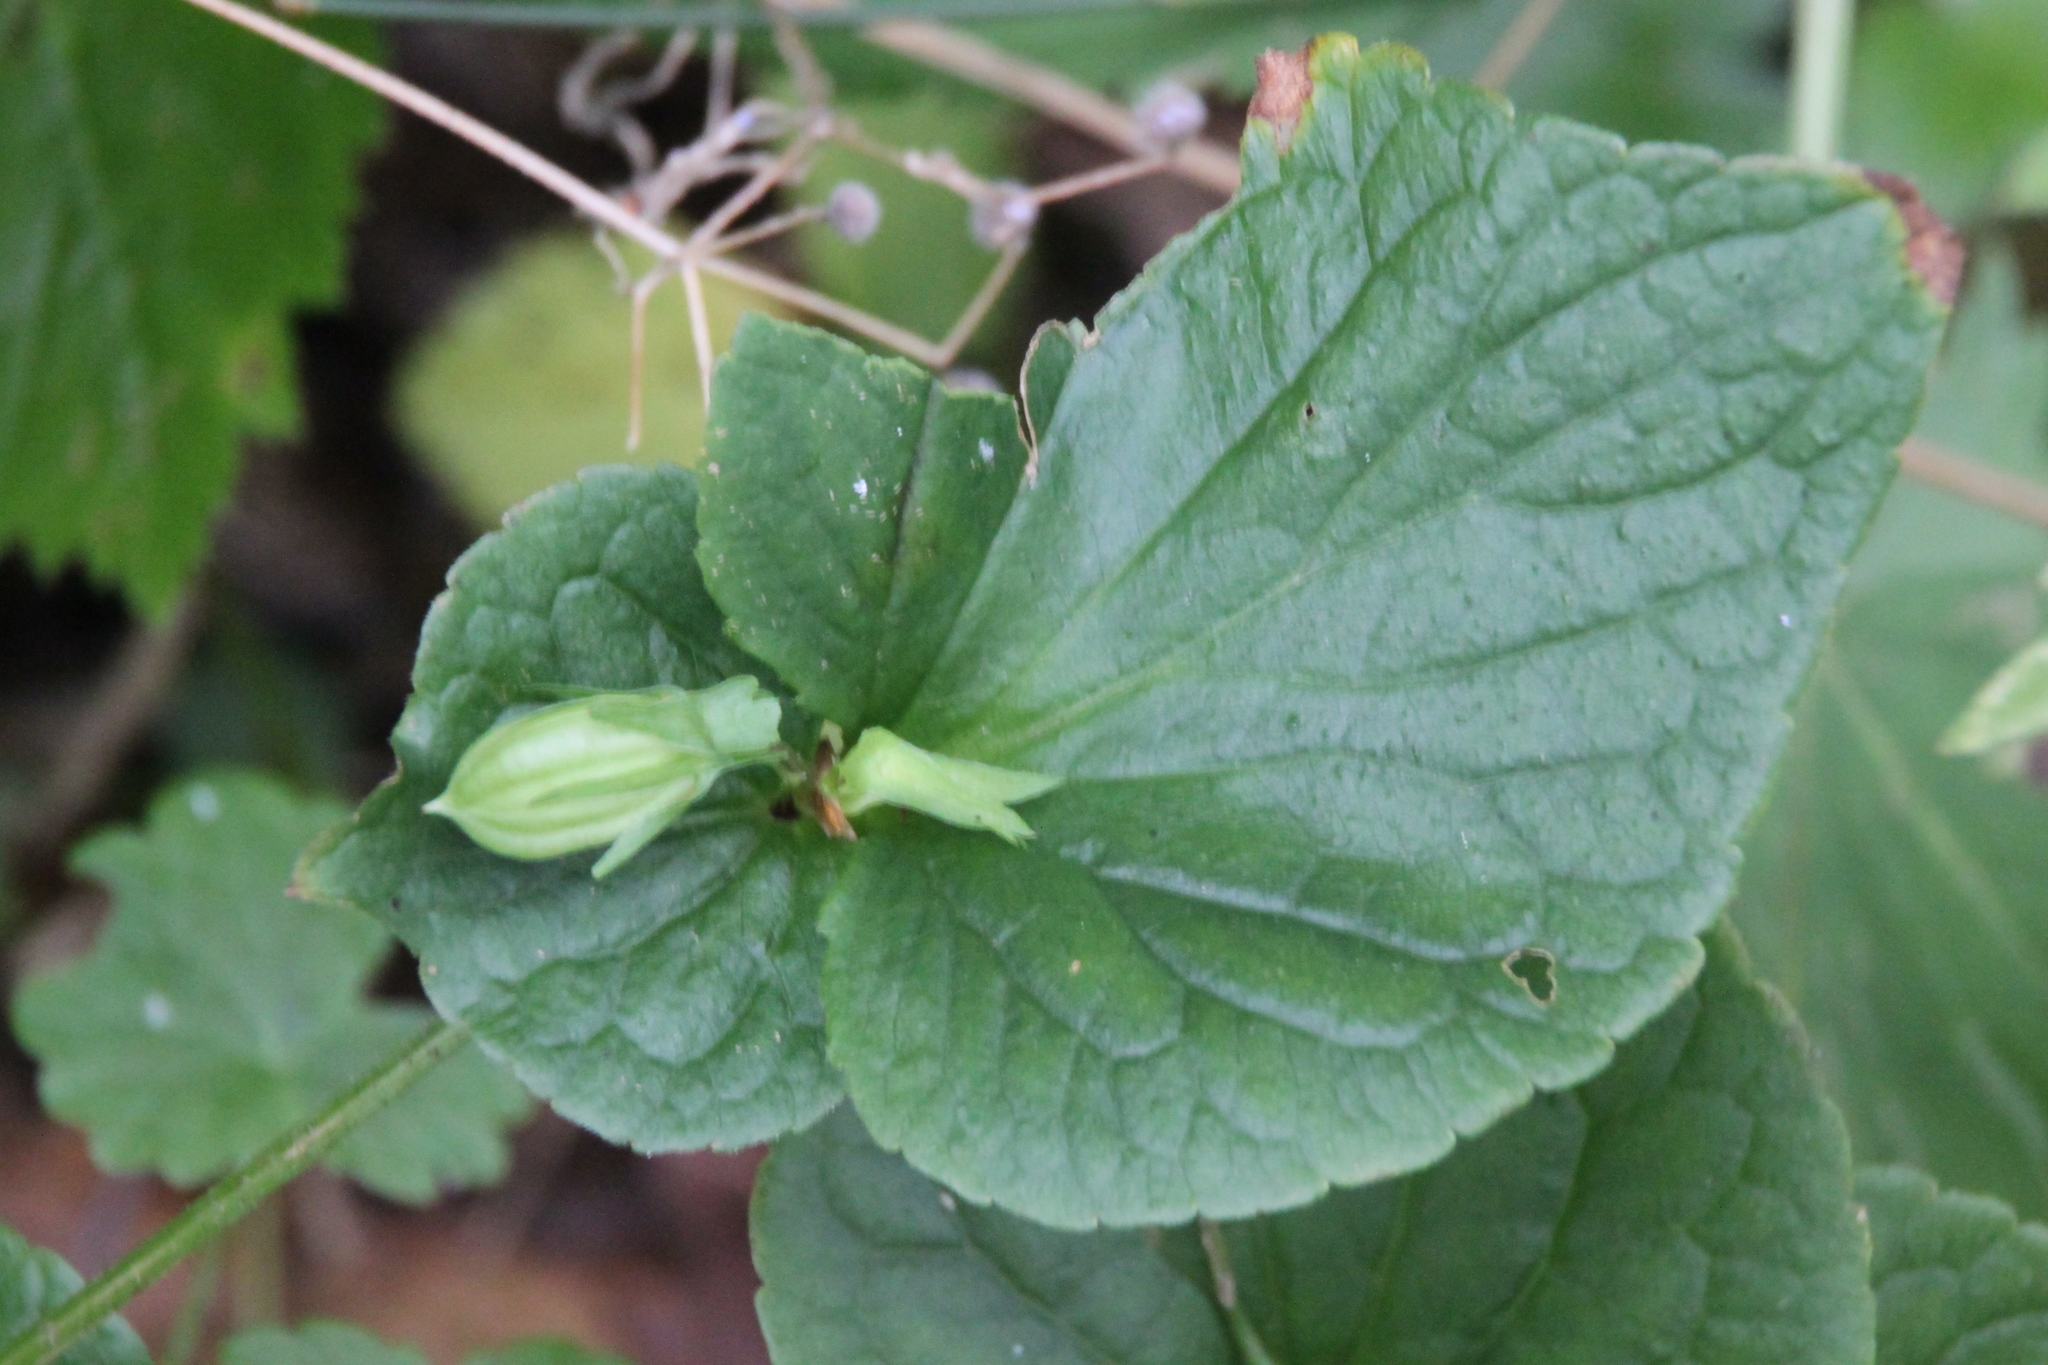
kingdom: Plantae
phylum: Tracheophyta
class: Magnoliopsida
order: Malpighiales
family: Violaceae
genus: Viola
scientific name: Viola mirabilis
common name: Wonder violet
